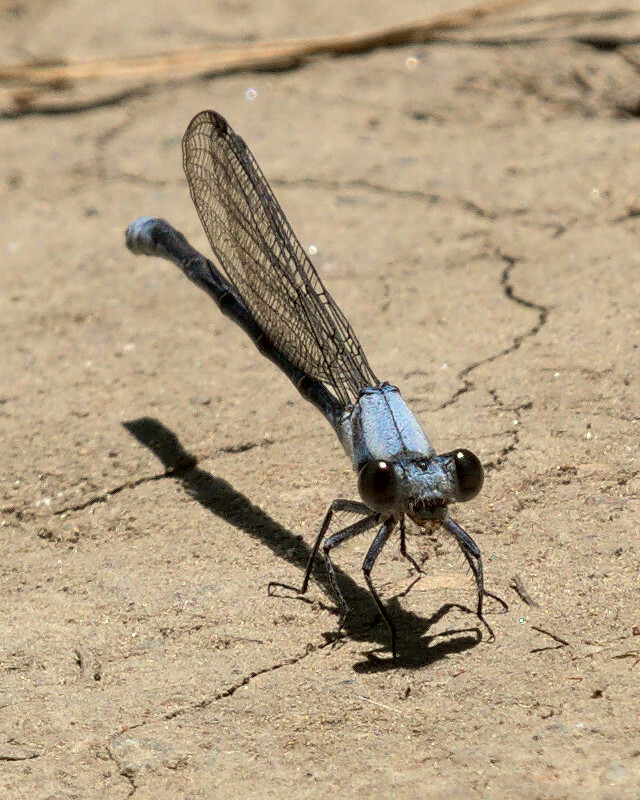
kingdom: Animalia
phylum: Arthropoda
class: Insecta
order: Odonata
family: Coenagrionidae
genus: Argia
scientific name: Argia moesta
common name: Powdered dancer
